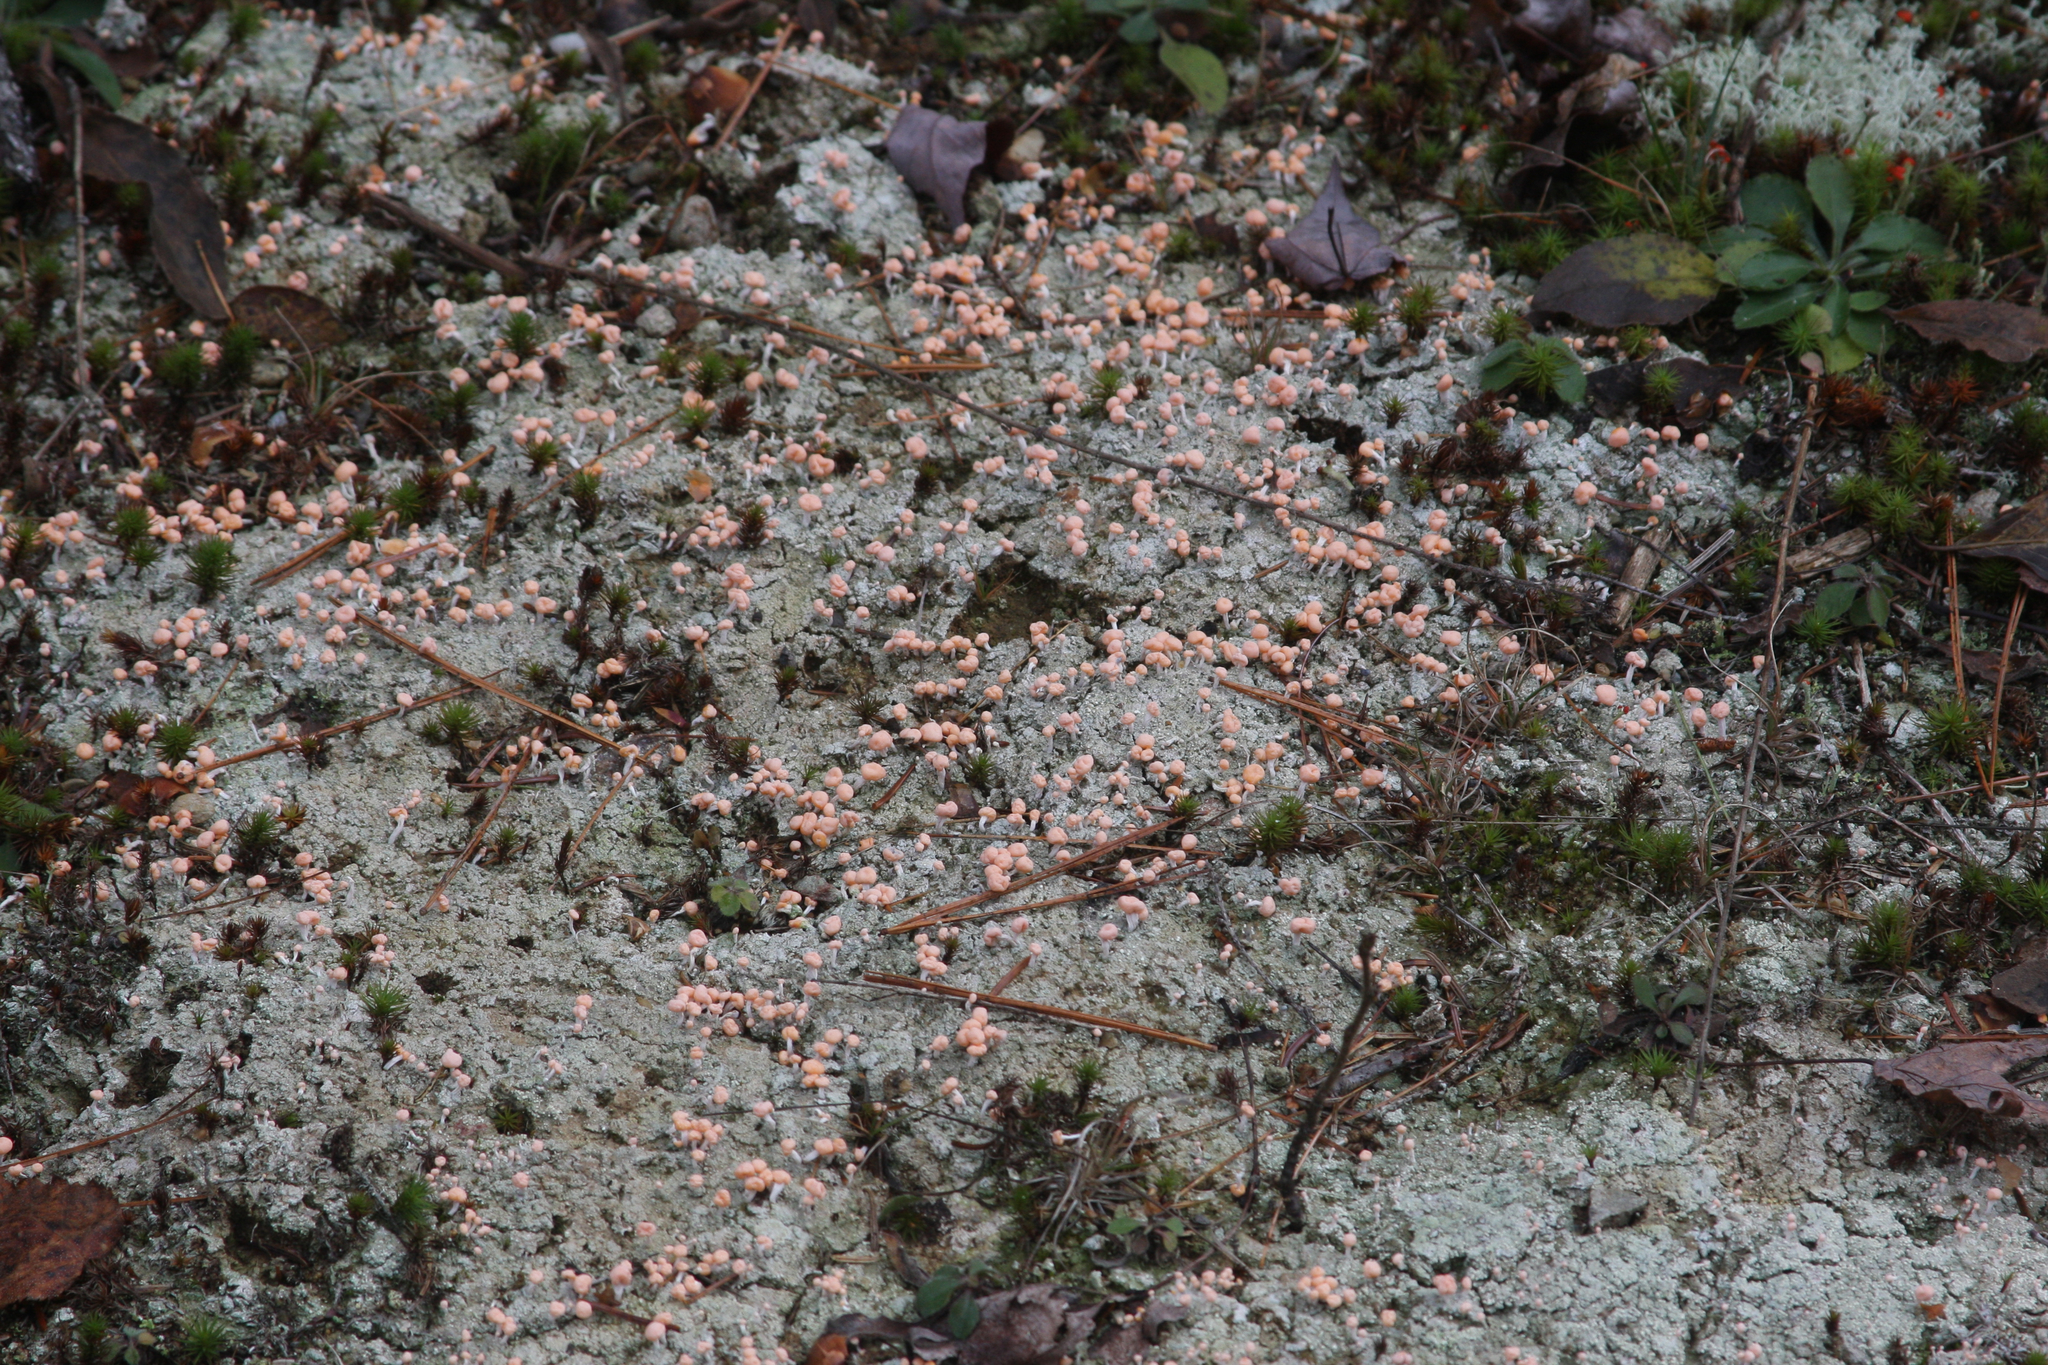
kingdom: Fungi
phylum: Ascomycota
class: Lecanoromycetes
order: Pertusariales
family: Icmadophilaceae
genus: Dibaeis
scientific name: Dibaeis baeomyces
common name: Pink earth lichen
